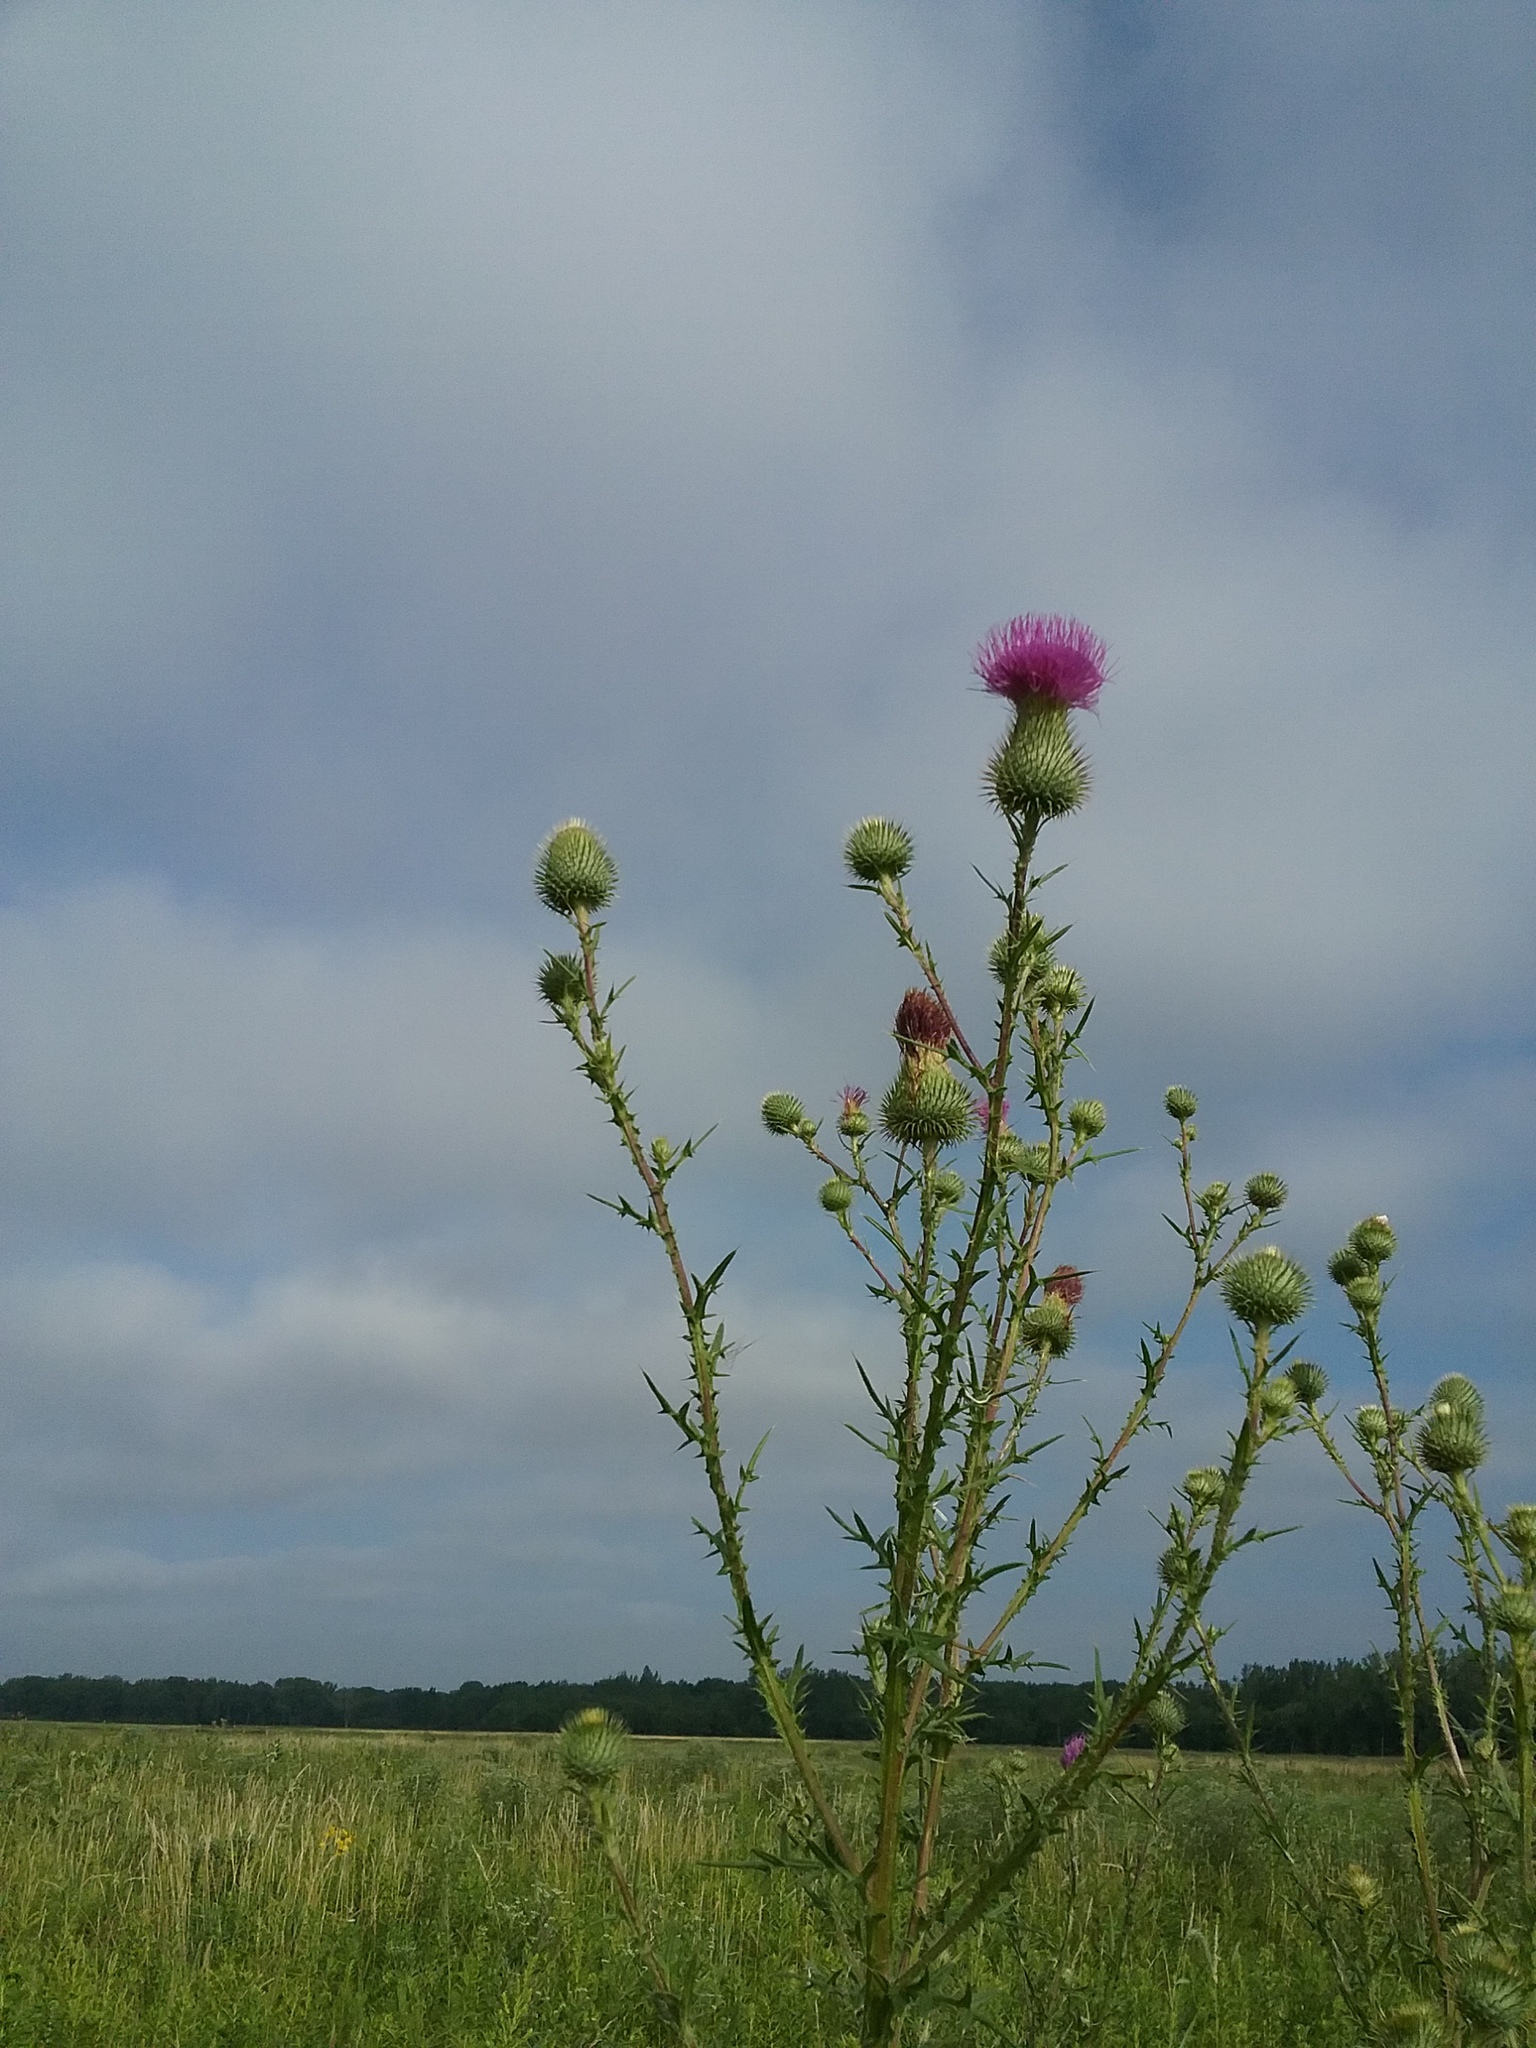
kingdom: Plantae
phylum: Tracheophyta
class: Magnoliopsida
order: Asterales
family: Asteraceae
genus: Cirsium
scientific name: Cirsium vulgare
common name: Bull thistle
